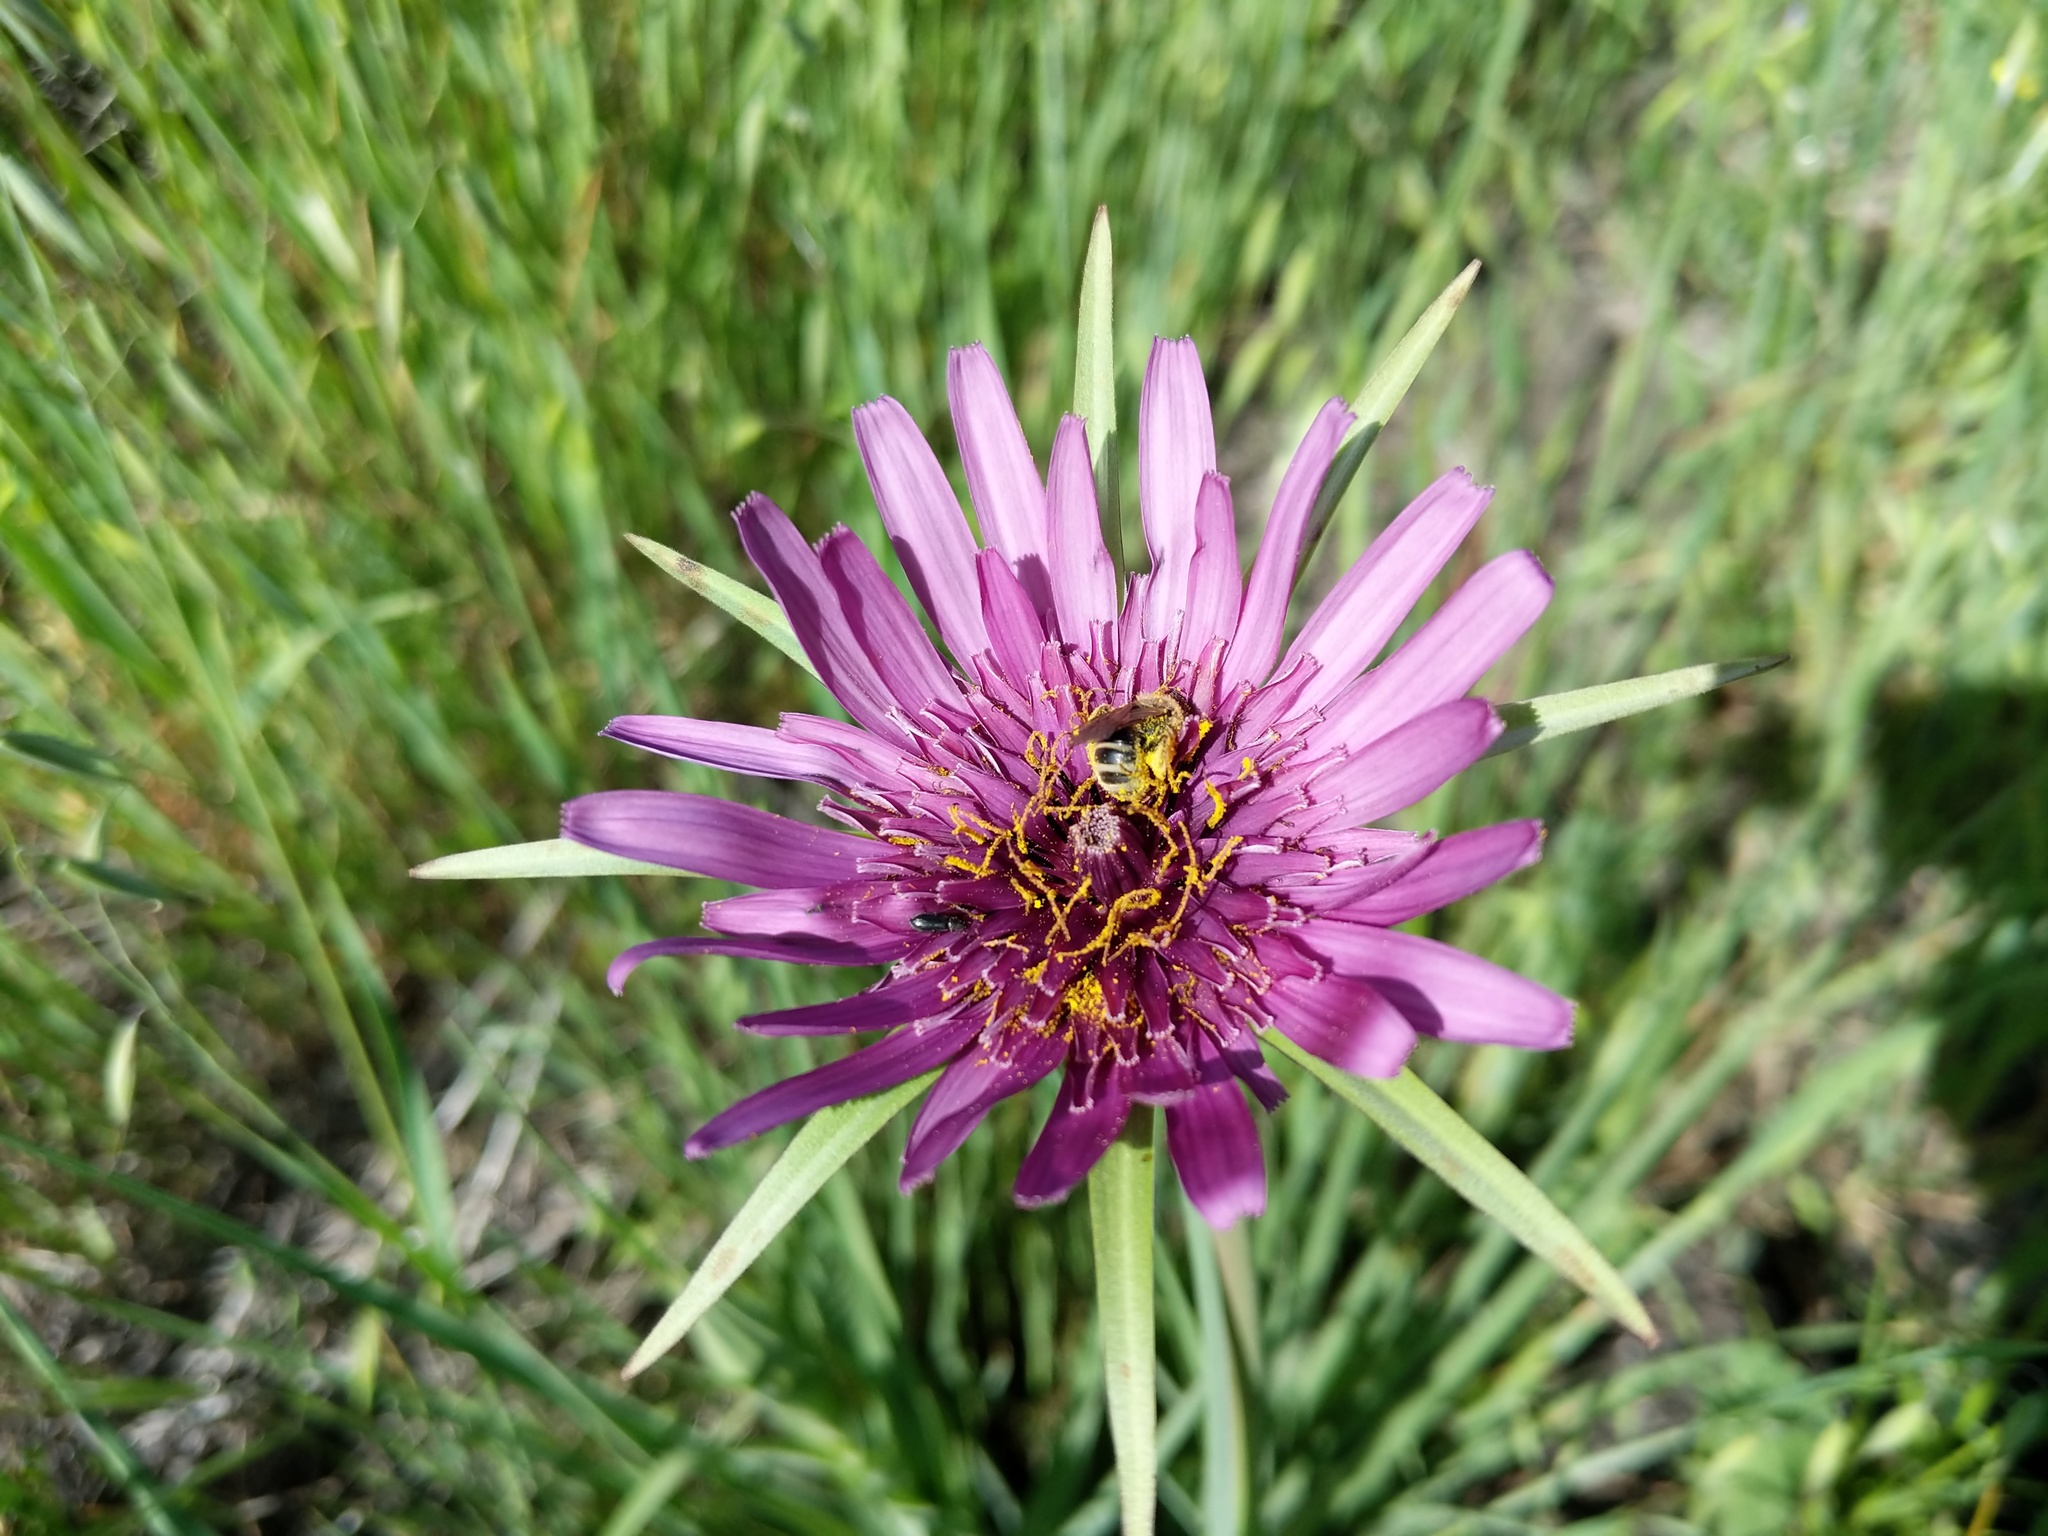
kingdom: Plantae
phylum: Tracheophyta
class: Magnoliopsida
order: Asterales
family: Asteraceae
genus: Tragopogon
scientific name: Tragopogon porrifolius
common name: Salsify
